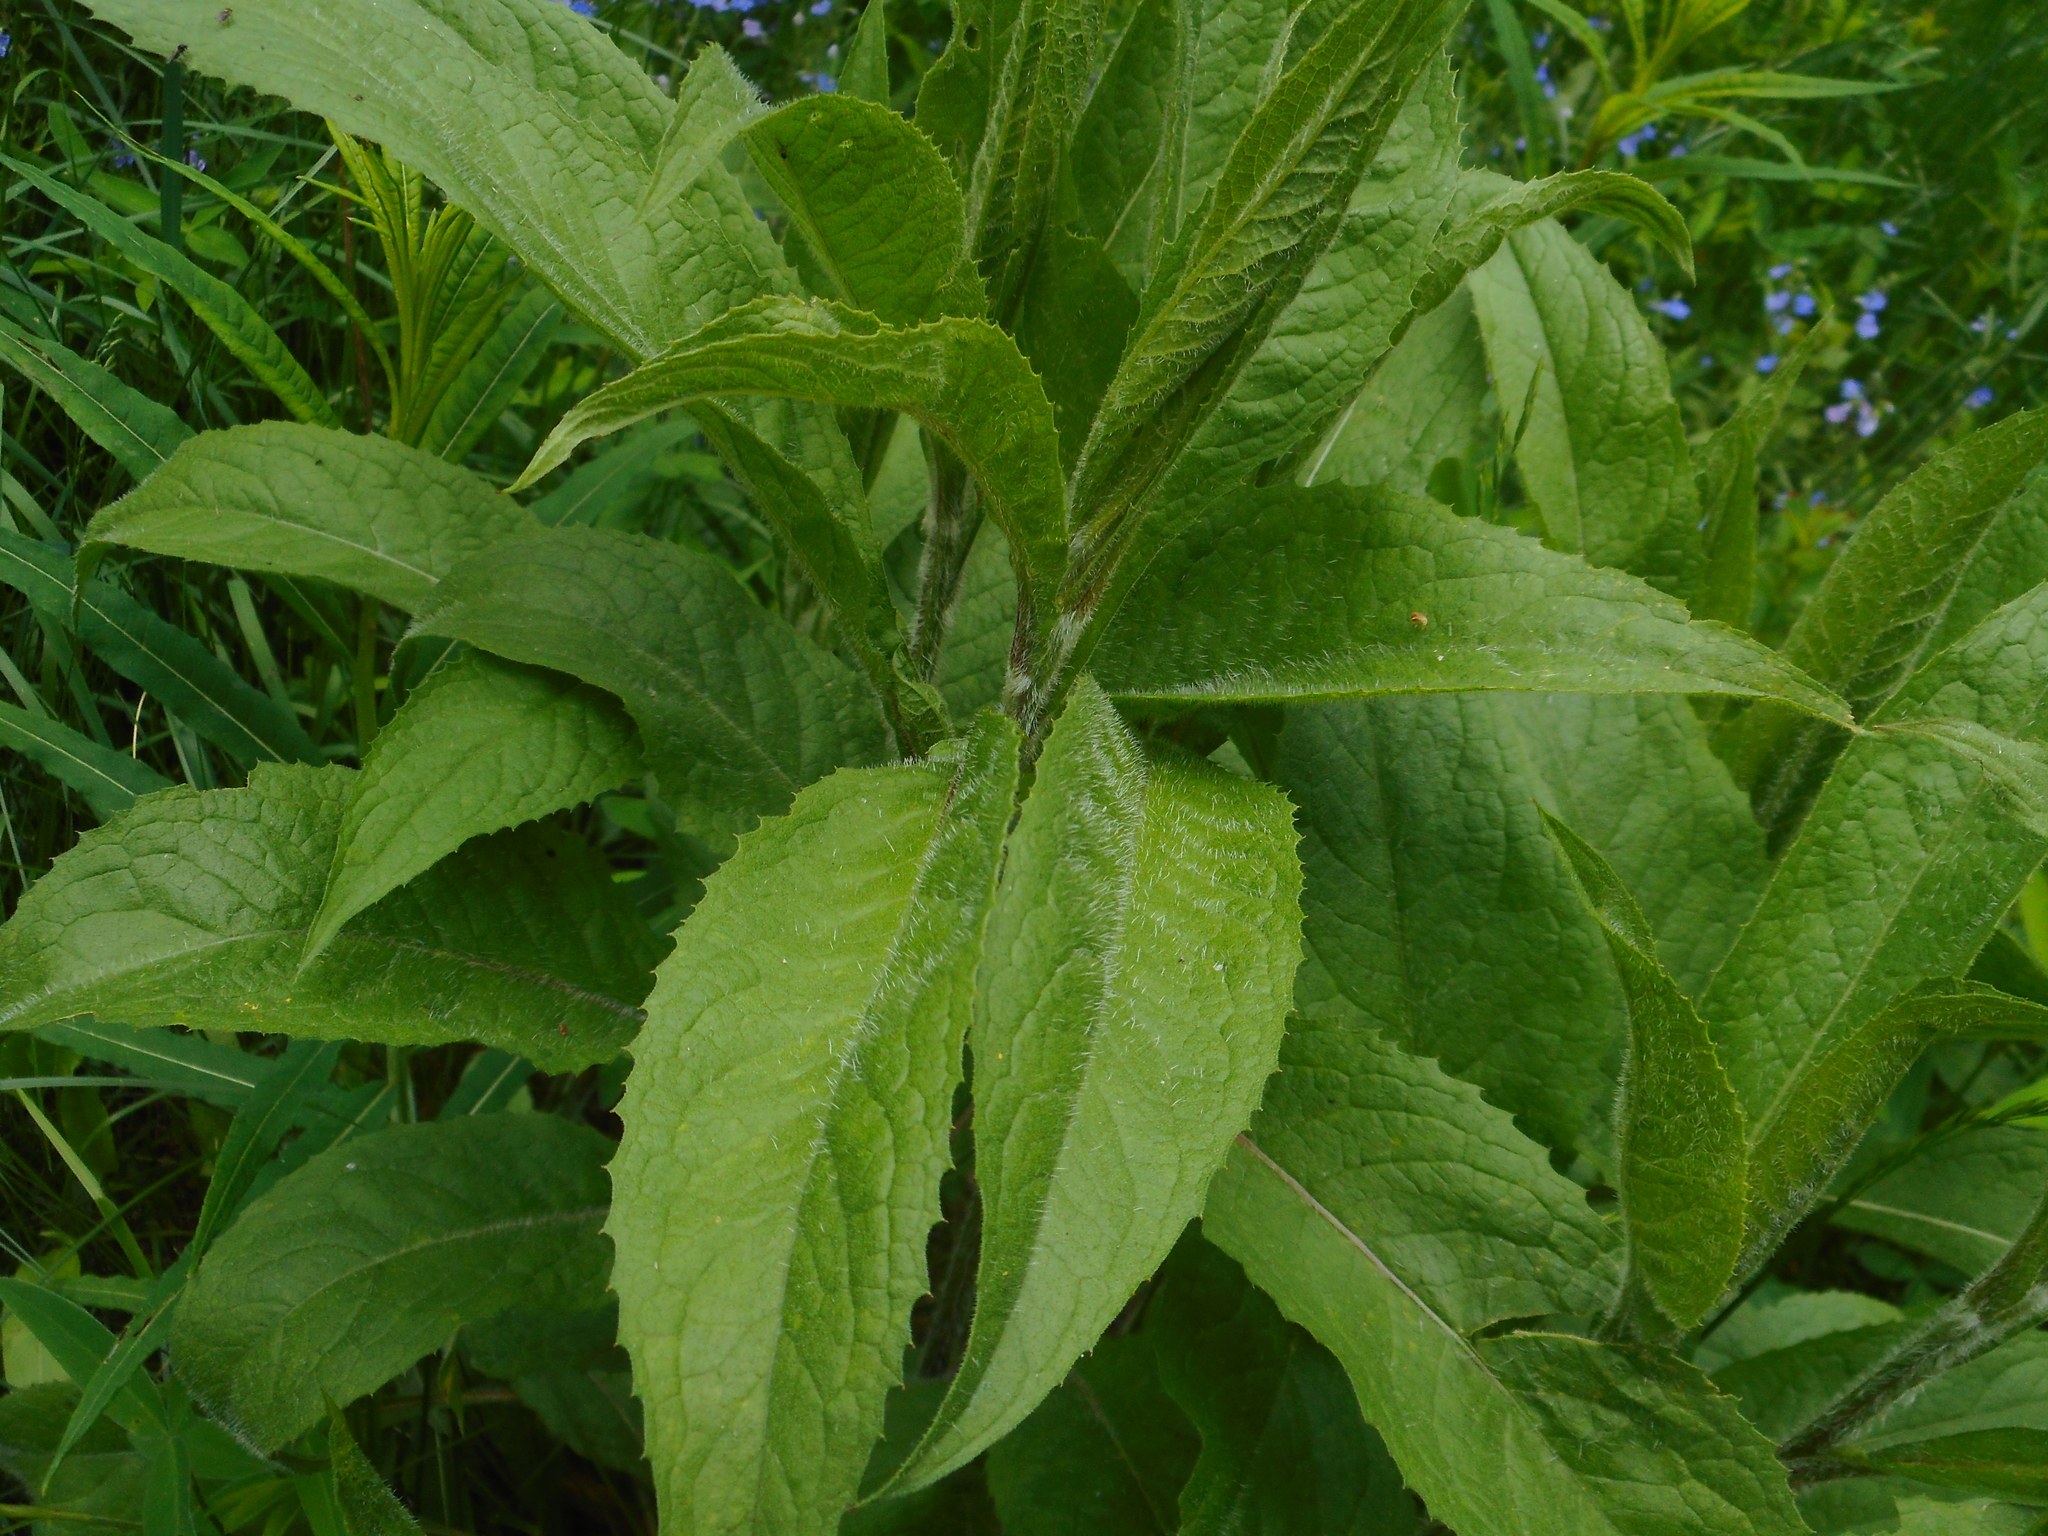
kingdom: Plantae
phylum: Tracheophyta
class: Magnoliopsida
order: Asterales
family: Asteraceae
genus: Centaurea
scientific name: Centaurea phrygia
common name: Wig knapweed
